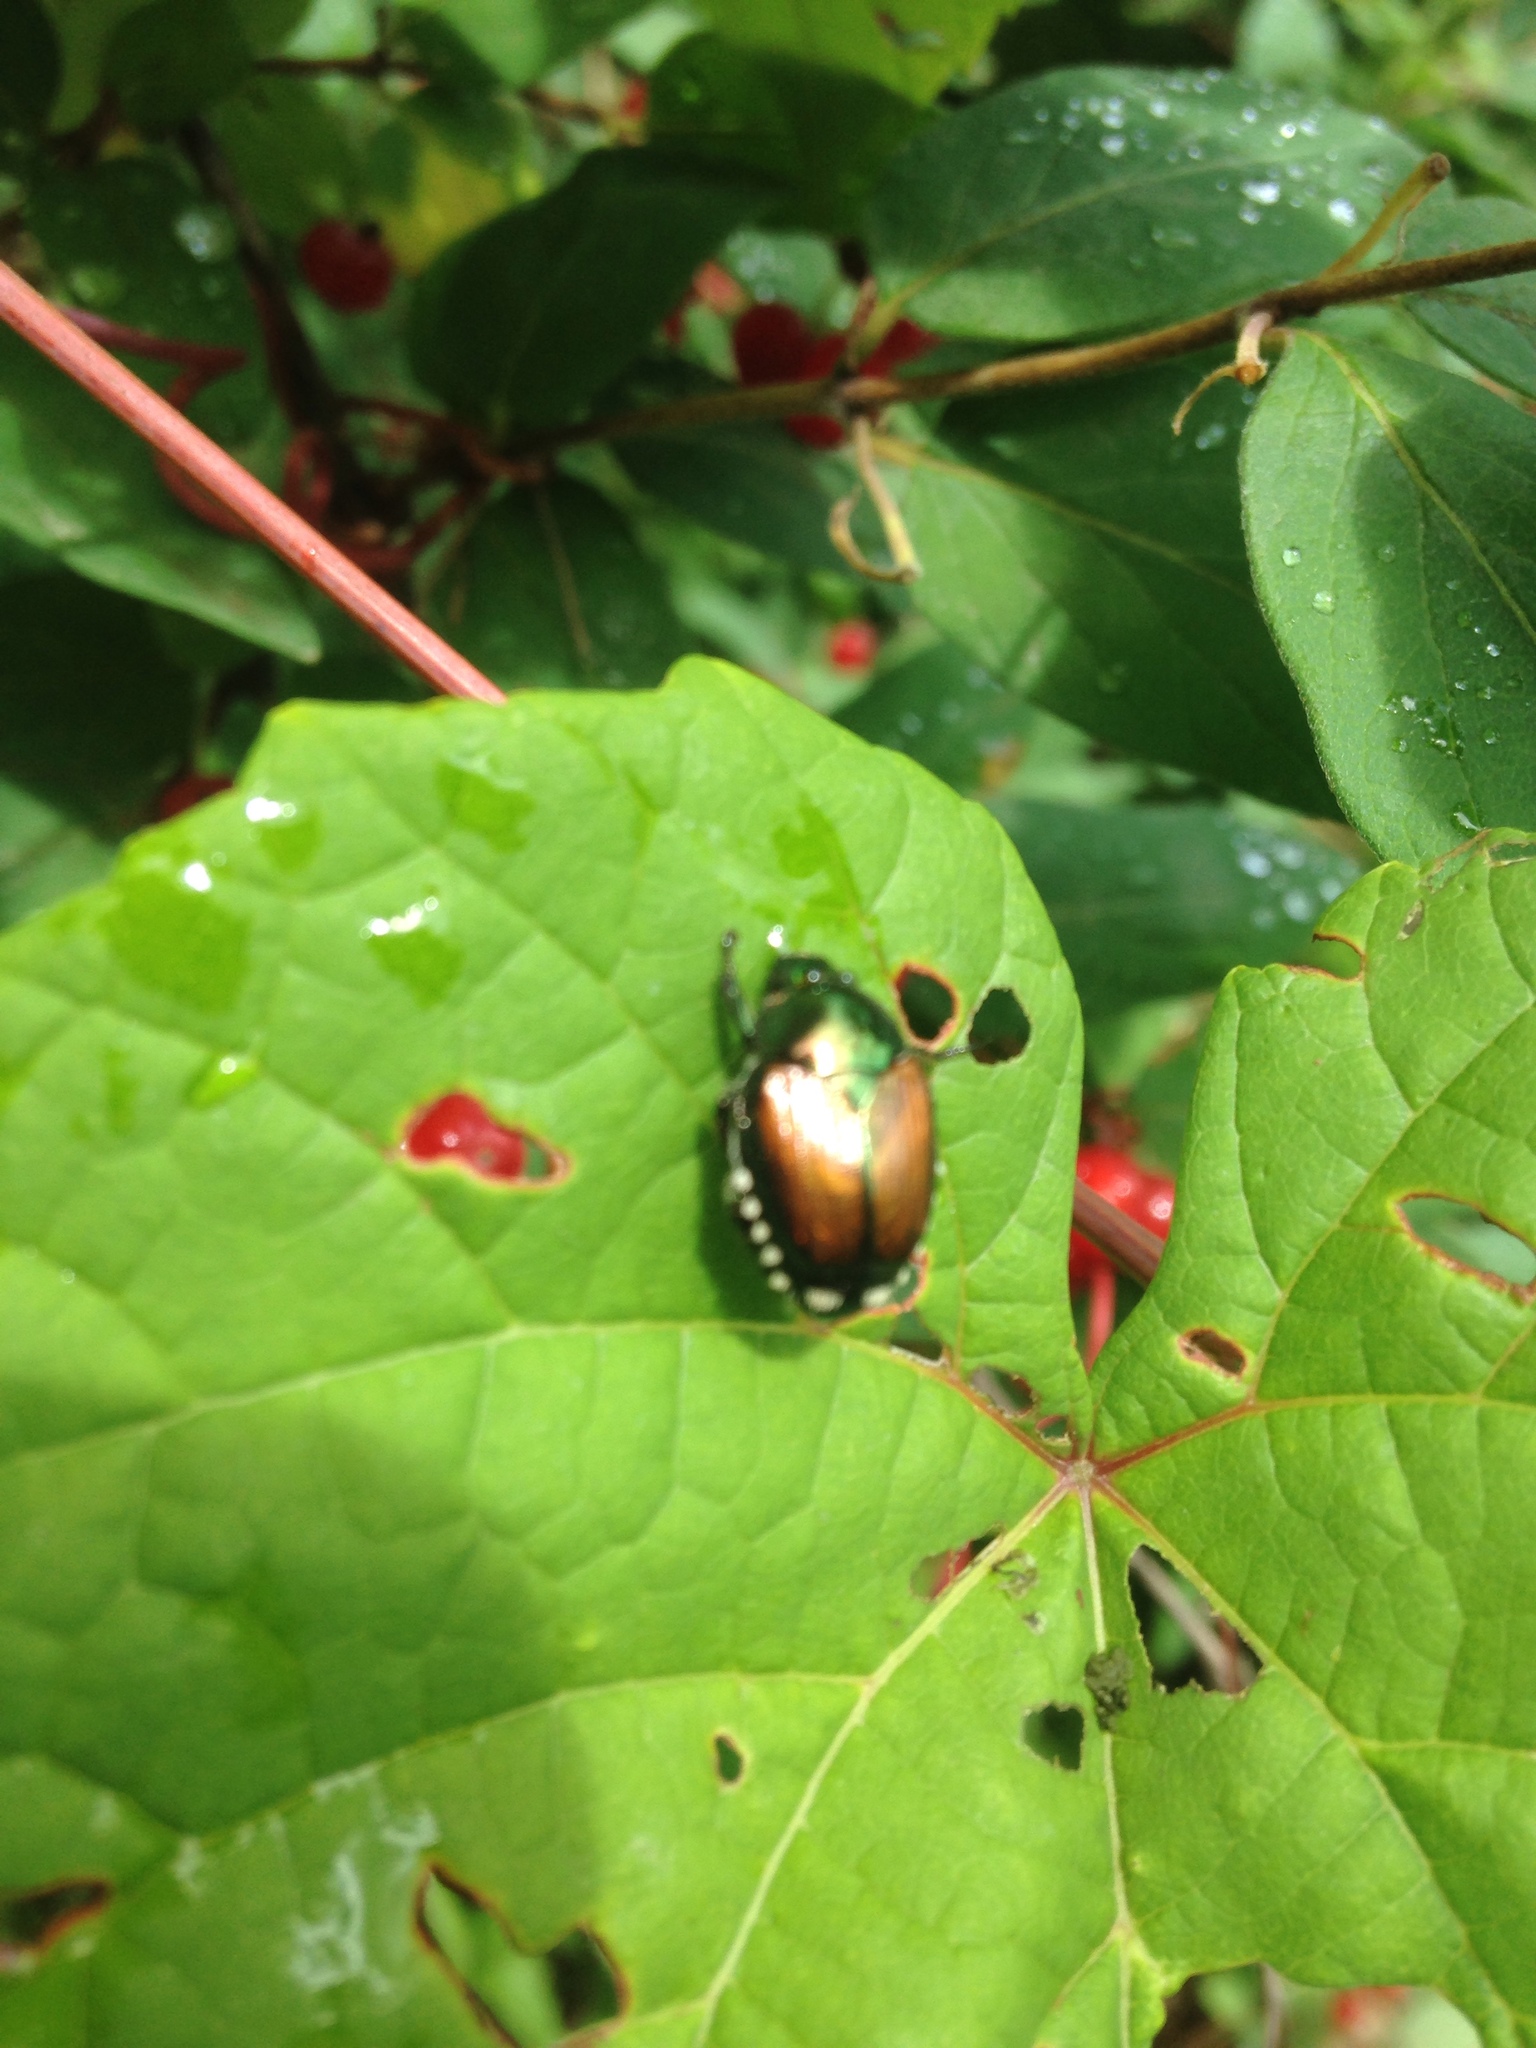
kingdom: Animalia
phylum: Arthropoda
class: Insecta
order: Coleoptera
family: Scarabaeidae
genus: Popillia
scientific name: Popillia japonica
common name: Japanese beetle
